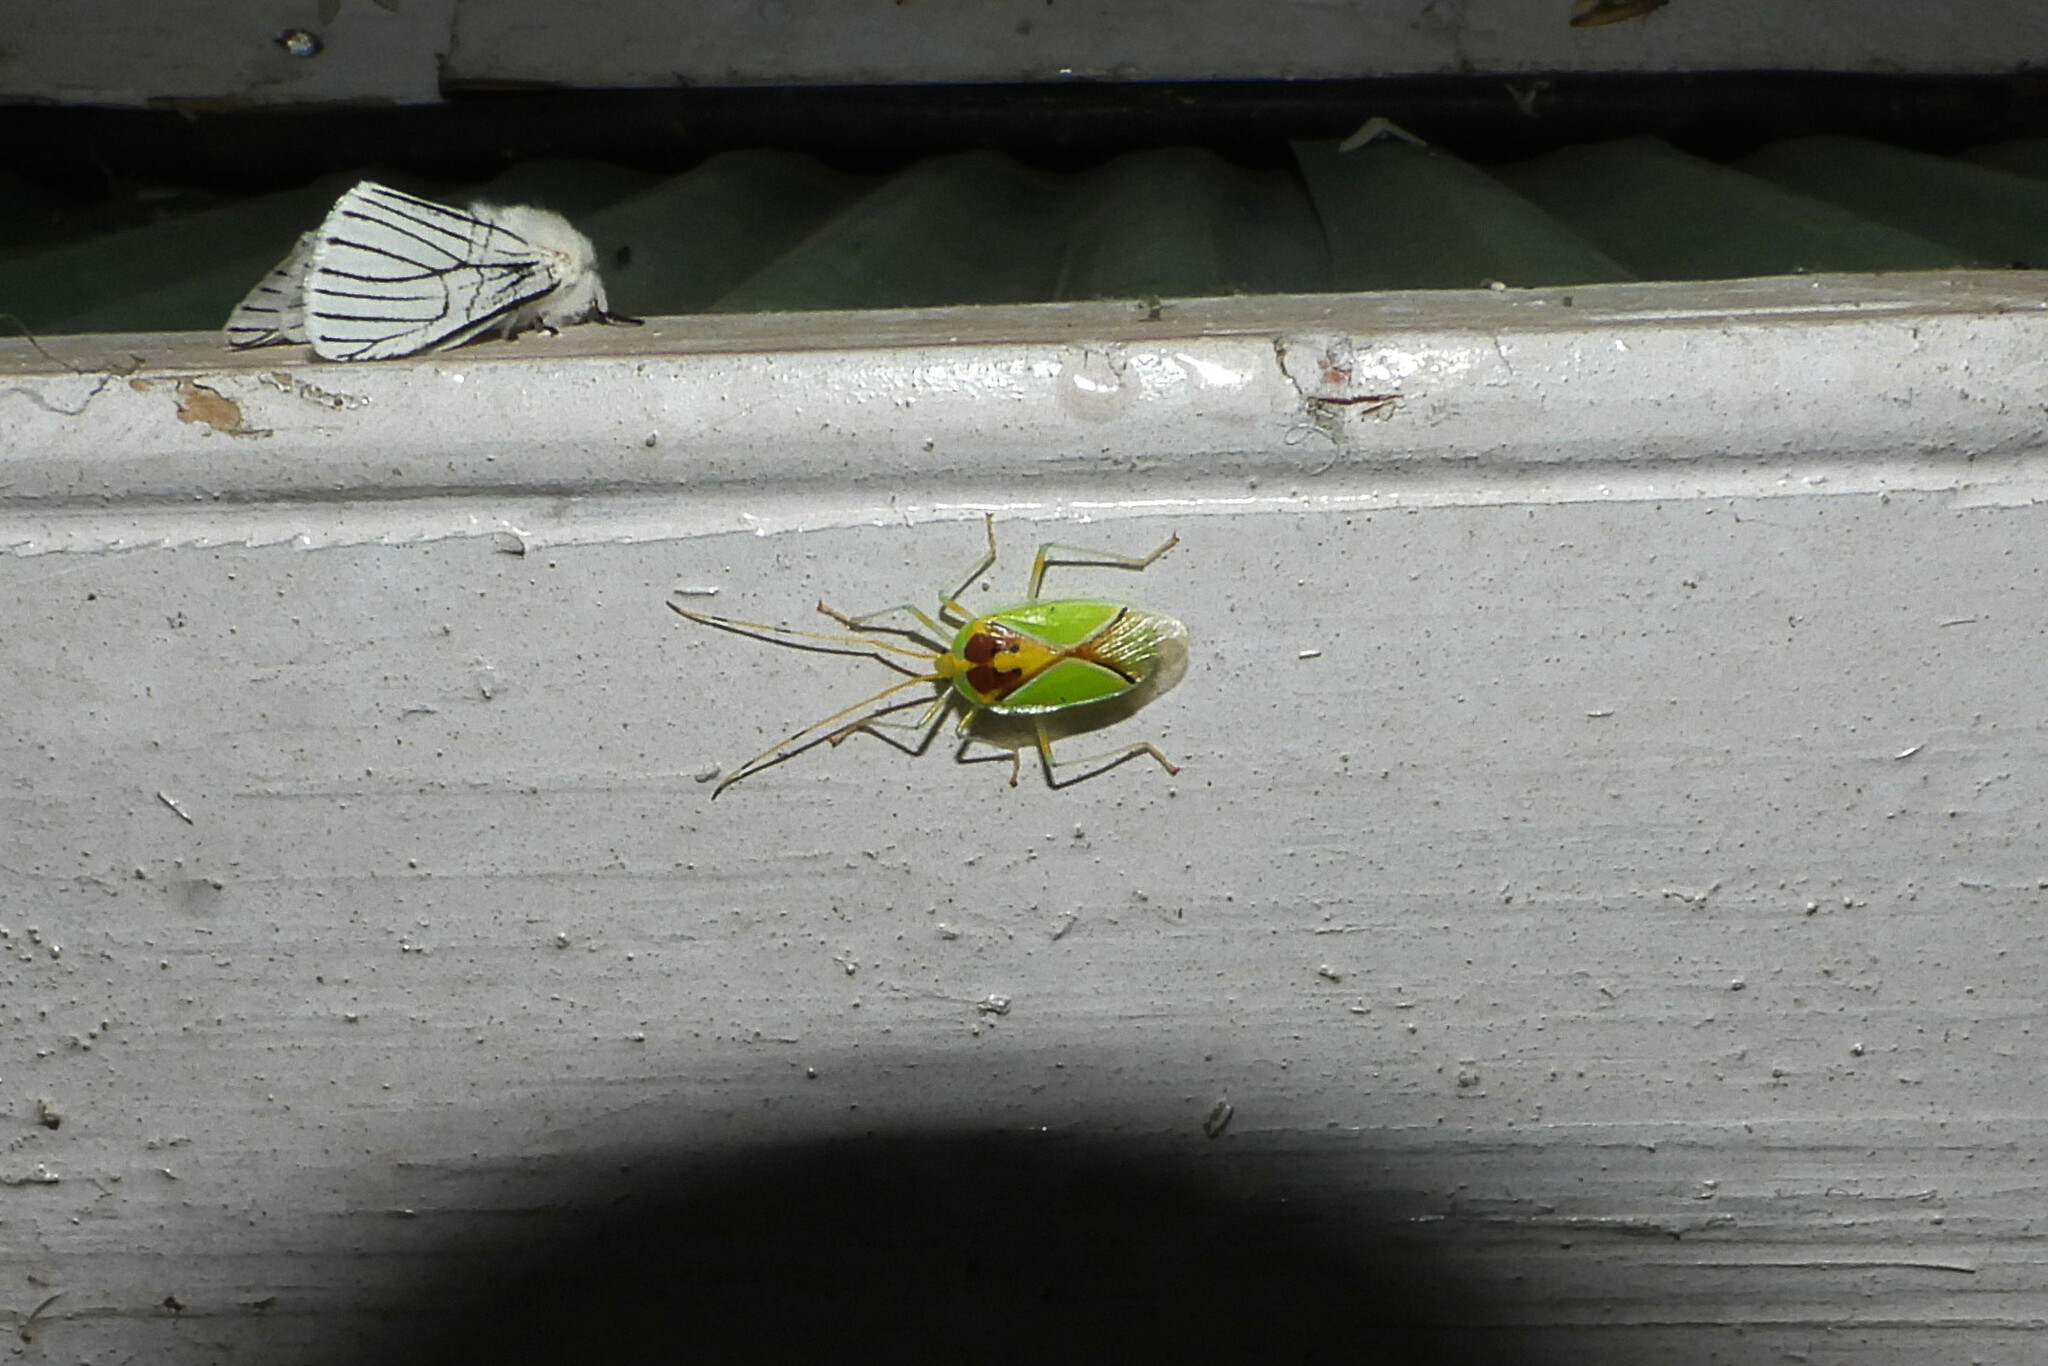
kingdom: Animalia
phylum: Arthropoda
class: Insecta
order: Hemiptera
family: Urostylididae
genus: Urolabida
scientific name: Urolabida
